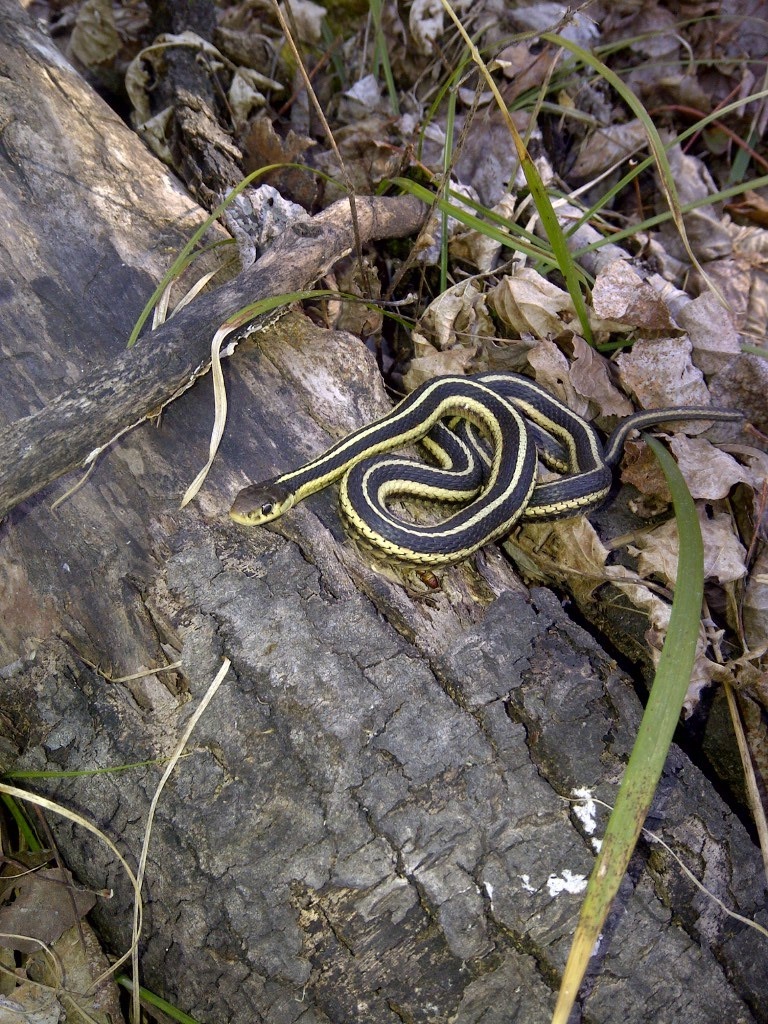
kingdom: Animalia
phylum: Chordata
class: Squamata
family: Colubridae
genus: Thamnophis
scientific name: Thamnophis sirtalis
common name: Common garter snake
